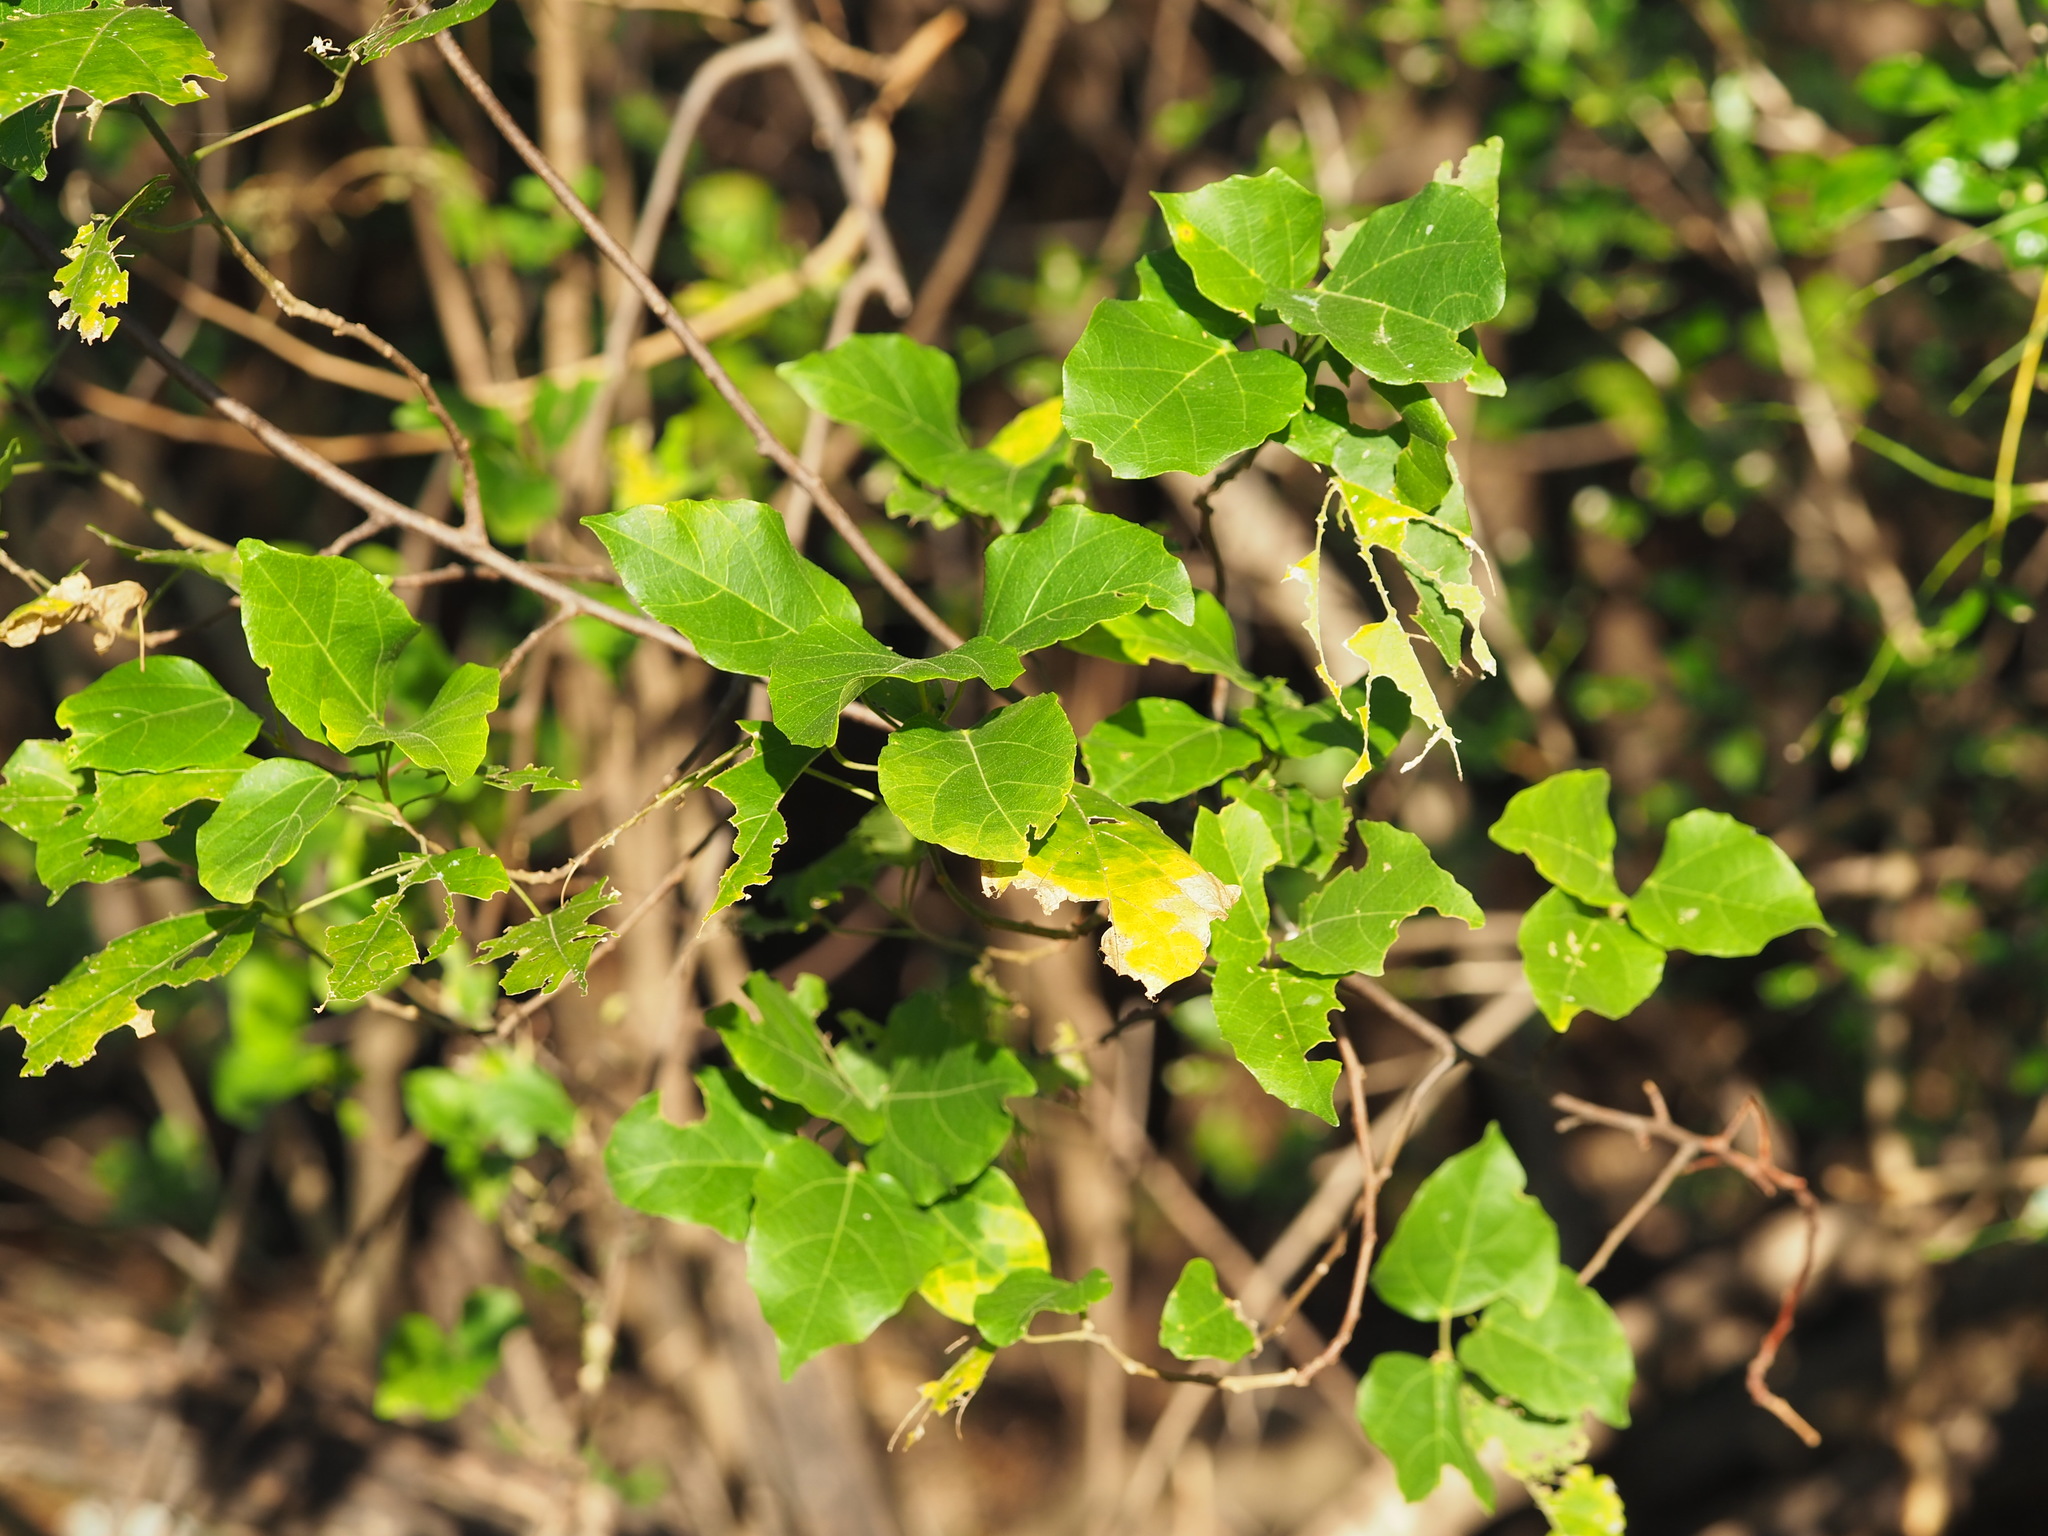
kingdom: Plantae
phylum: Tracheophyta
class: Magnoliopsida
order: Malpighiales
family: Euphorbiaceae
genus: Mallotus
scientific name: Mallotus repandus
